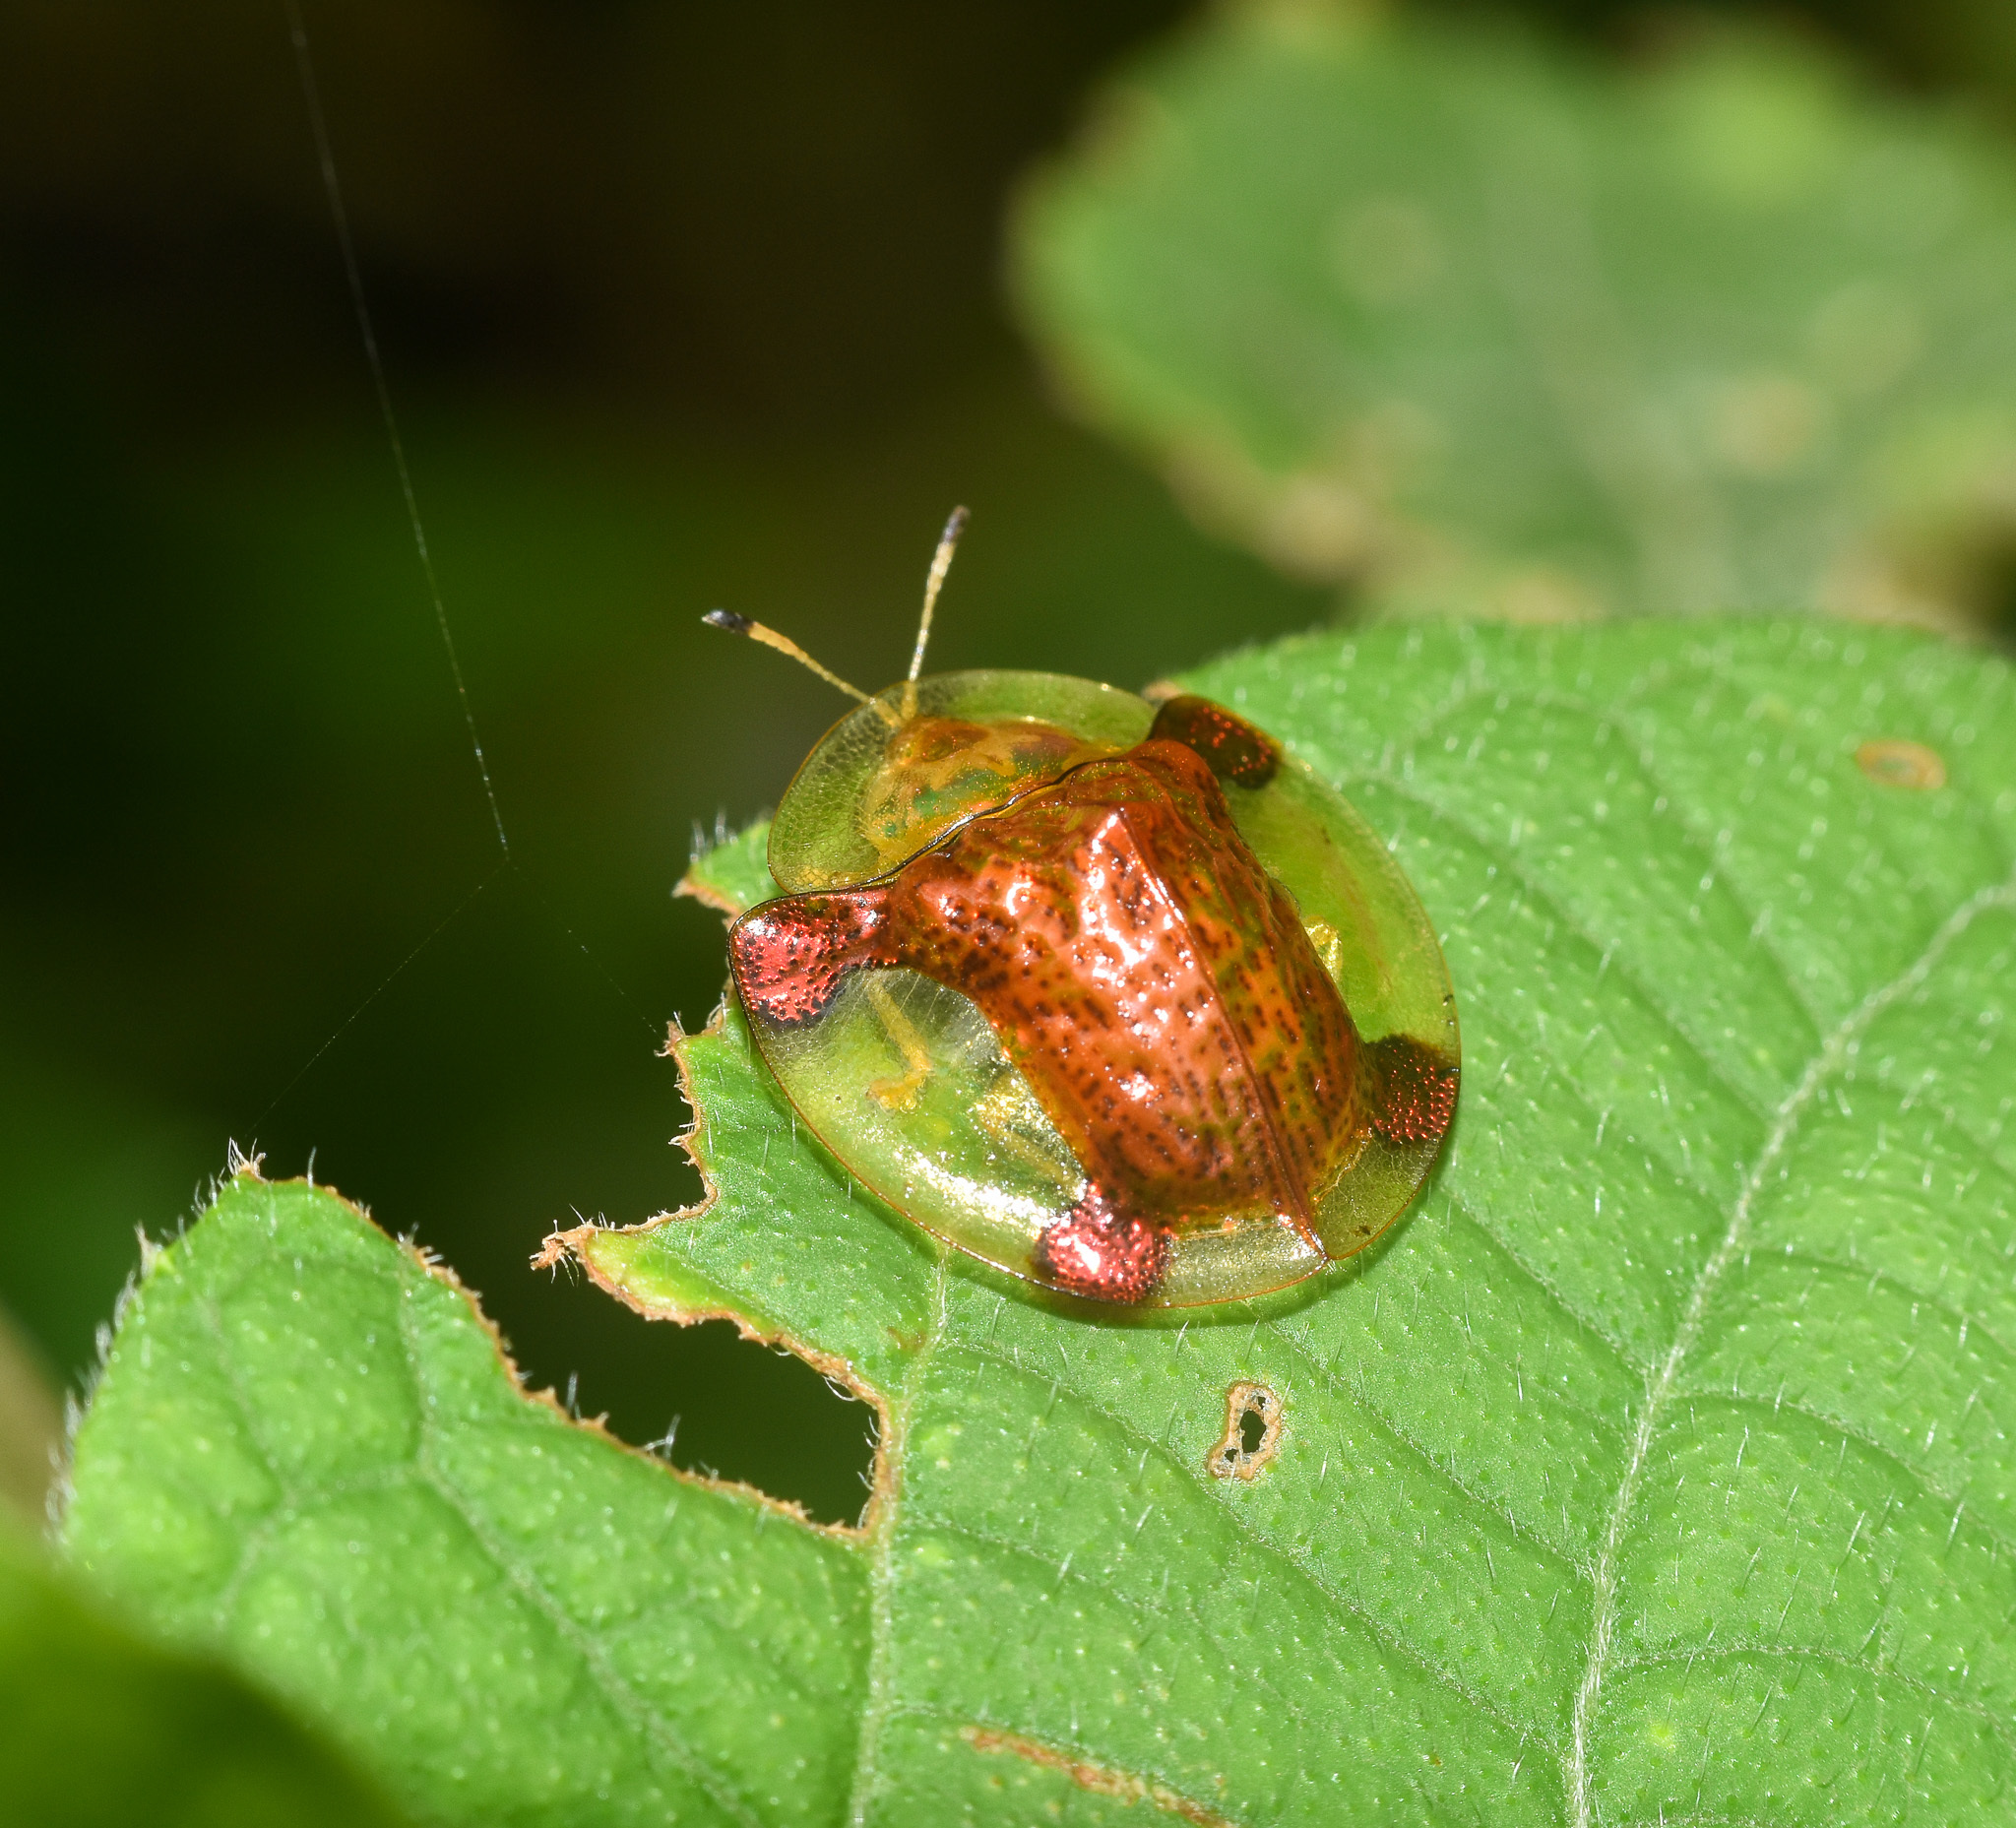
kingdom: Animalia
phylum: Arthropoda
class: Insecta
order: Coleoptera
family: Chrysomelidae
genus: Aspidimorpha
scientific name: Aspidimorpha sanctaecrucis
